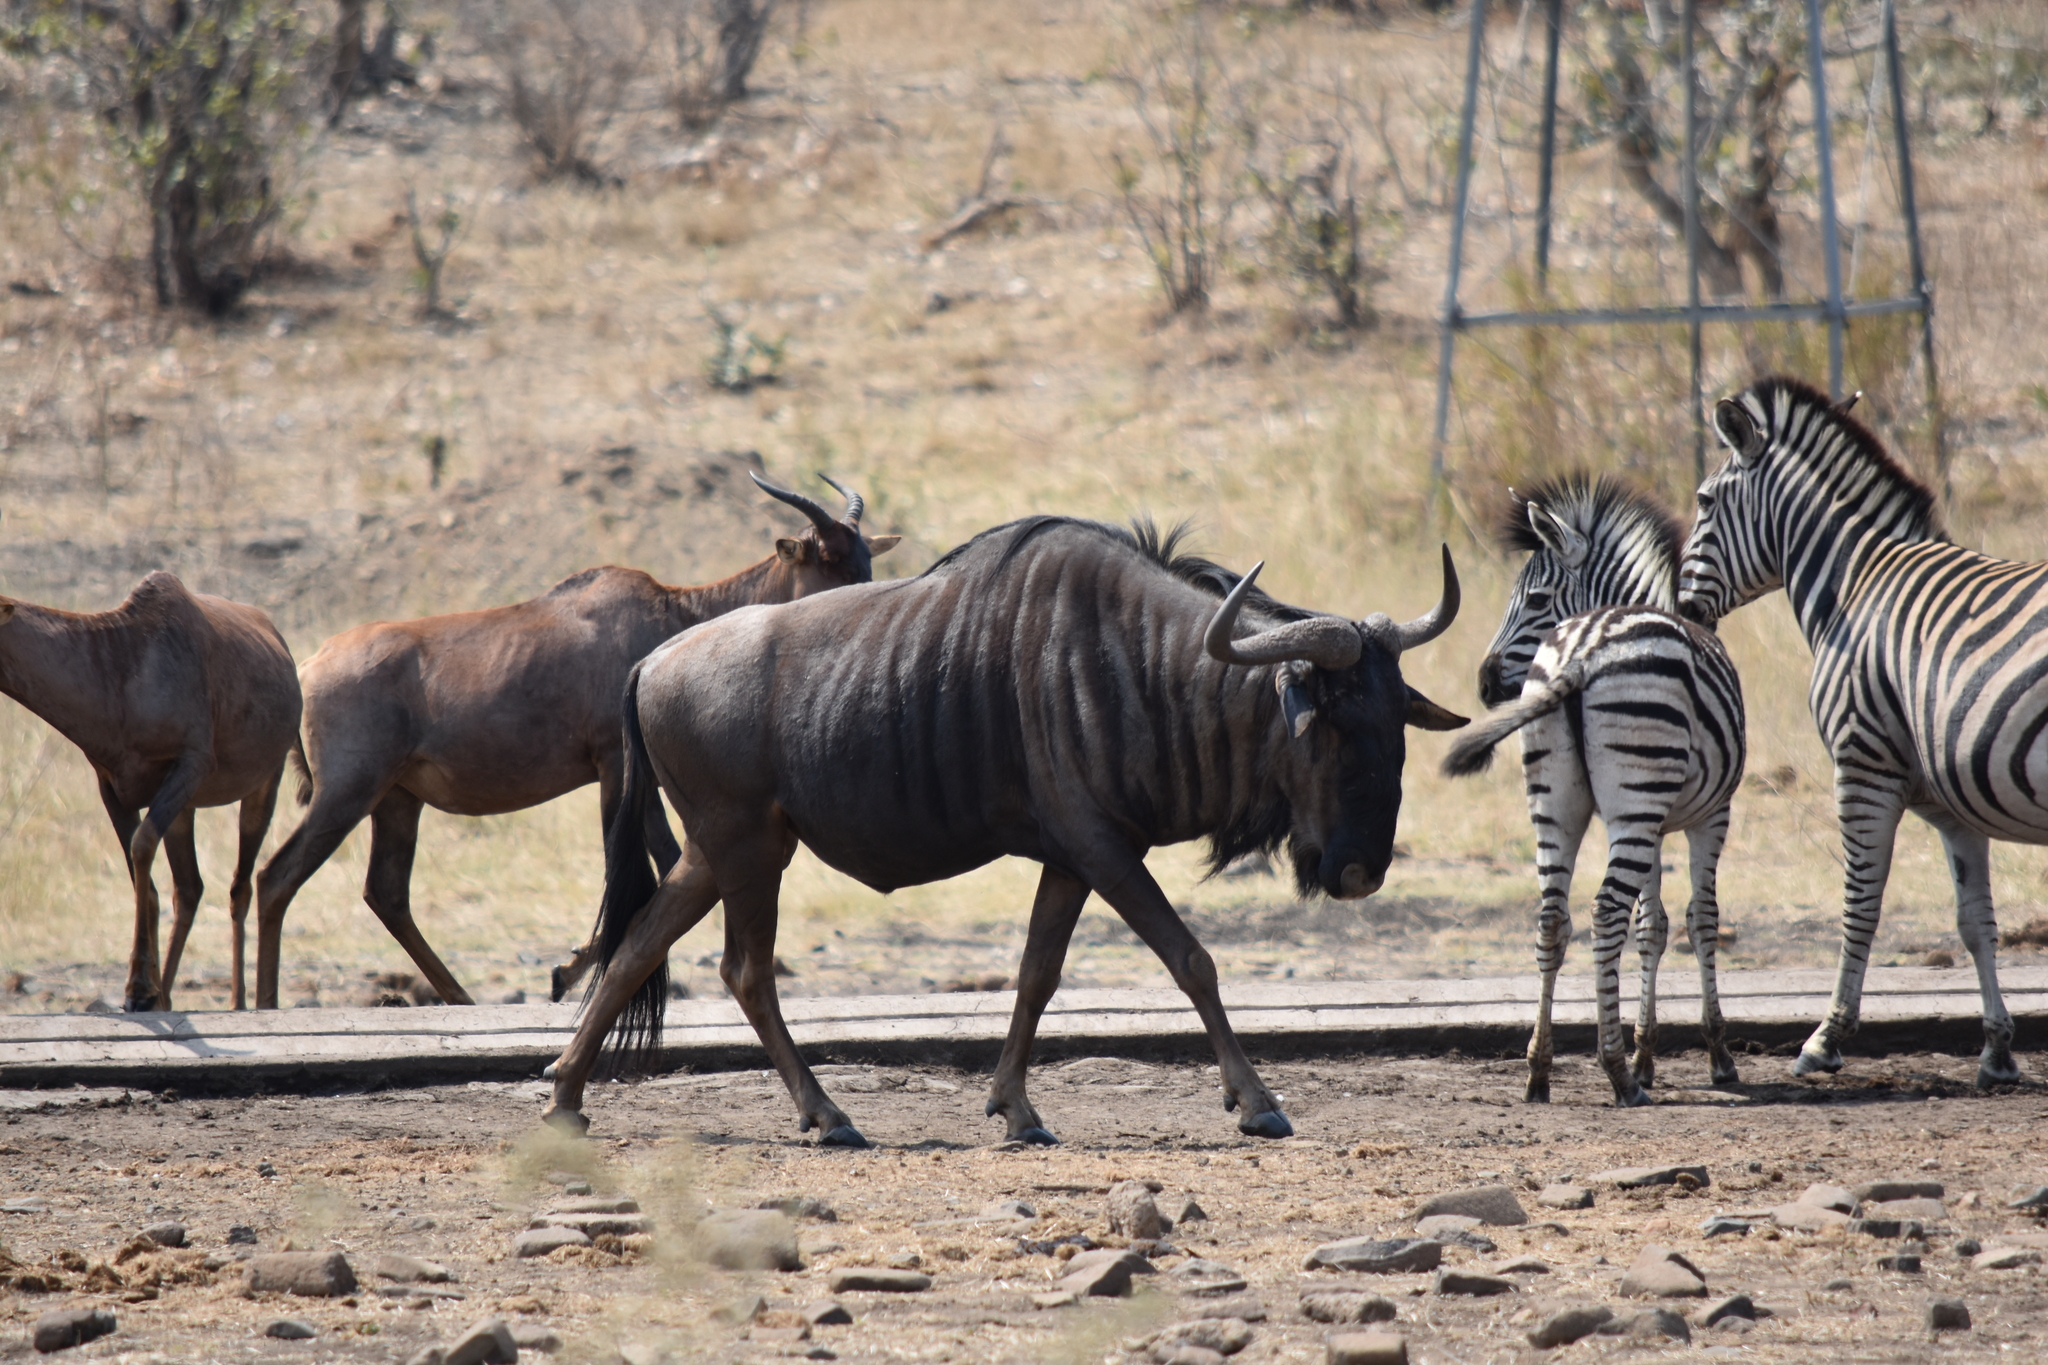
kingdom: Animalia
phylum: Chordata
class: Mammalia
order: Artiodactyla
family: Bovidae
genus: Connochaetes
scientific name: Connochaetes taurinus
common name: Blue wildebeest
